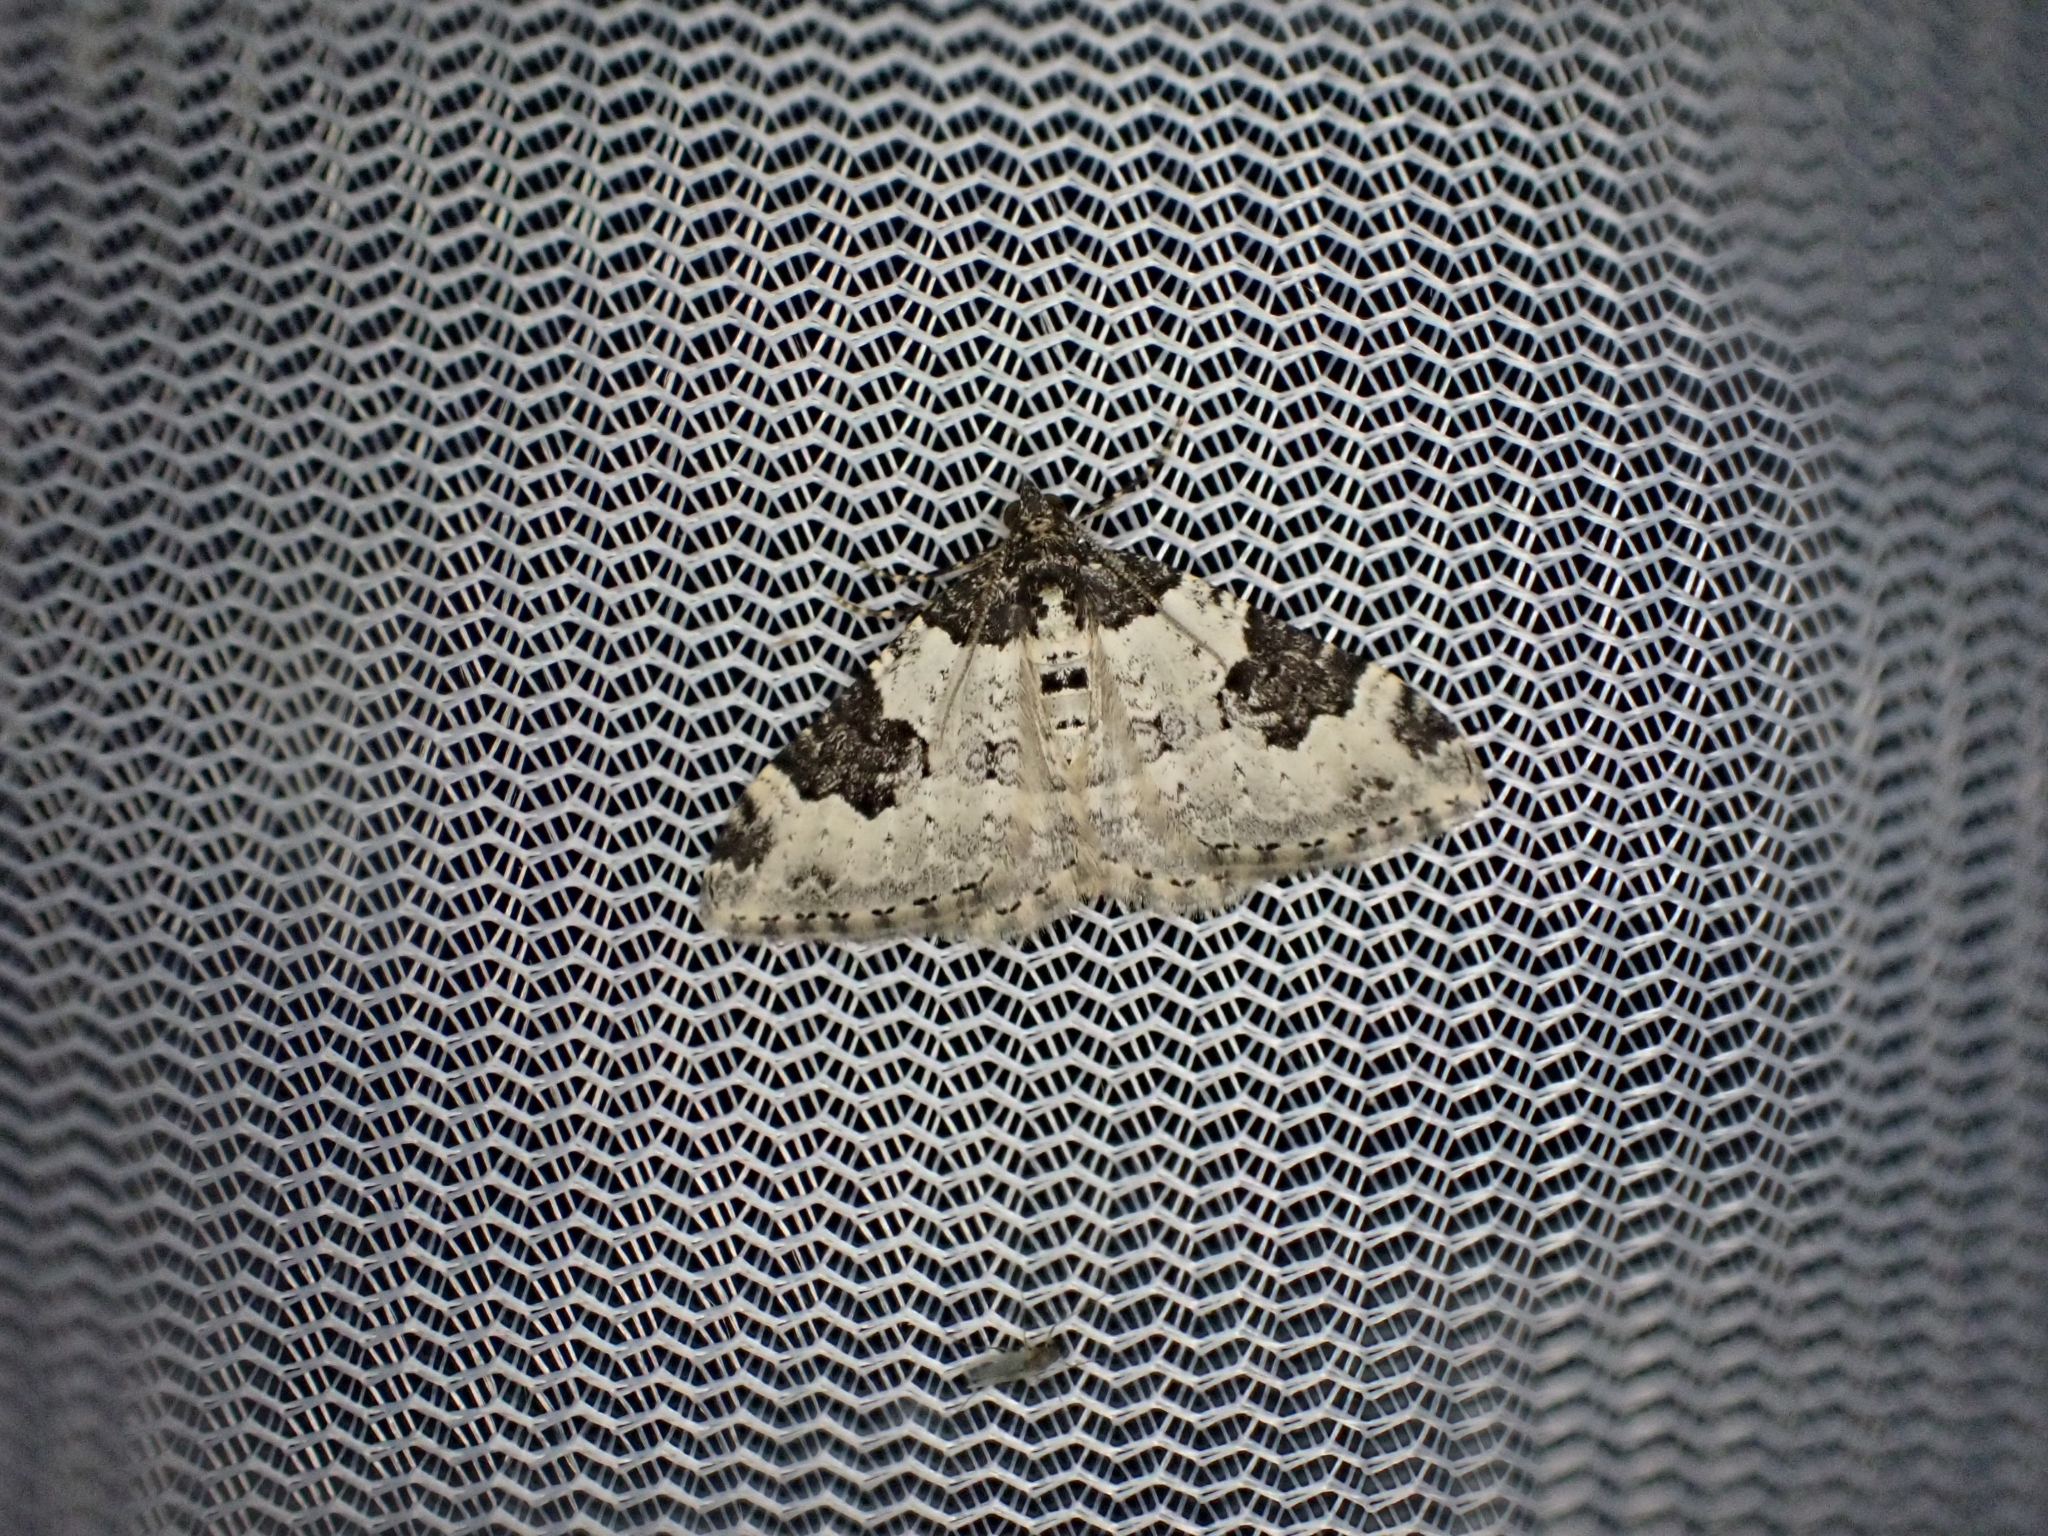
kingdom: Animalia
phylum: Arthropoda
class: Insecta
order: Lepidoptera
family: Geometridae
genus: Xanthorhoe
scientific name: Xanthorhoe fluctuata
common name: Garden carpet
